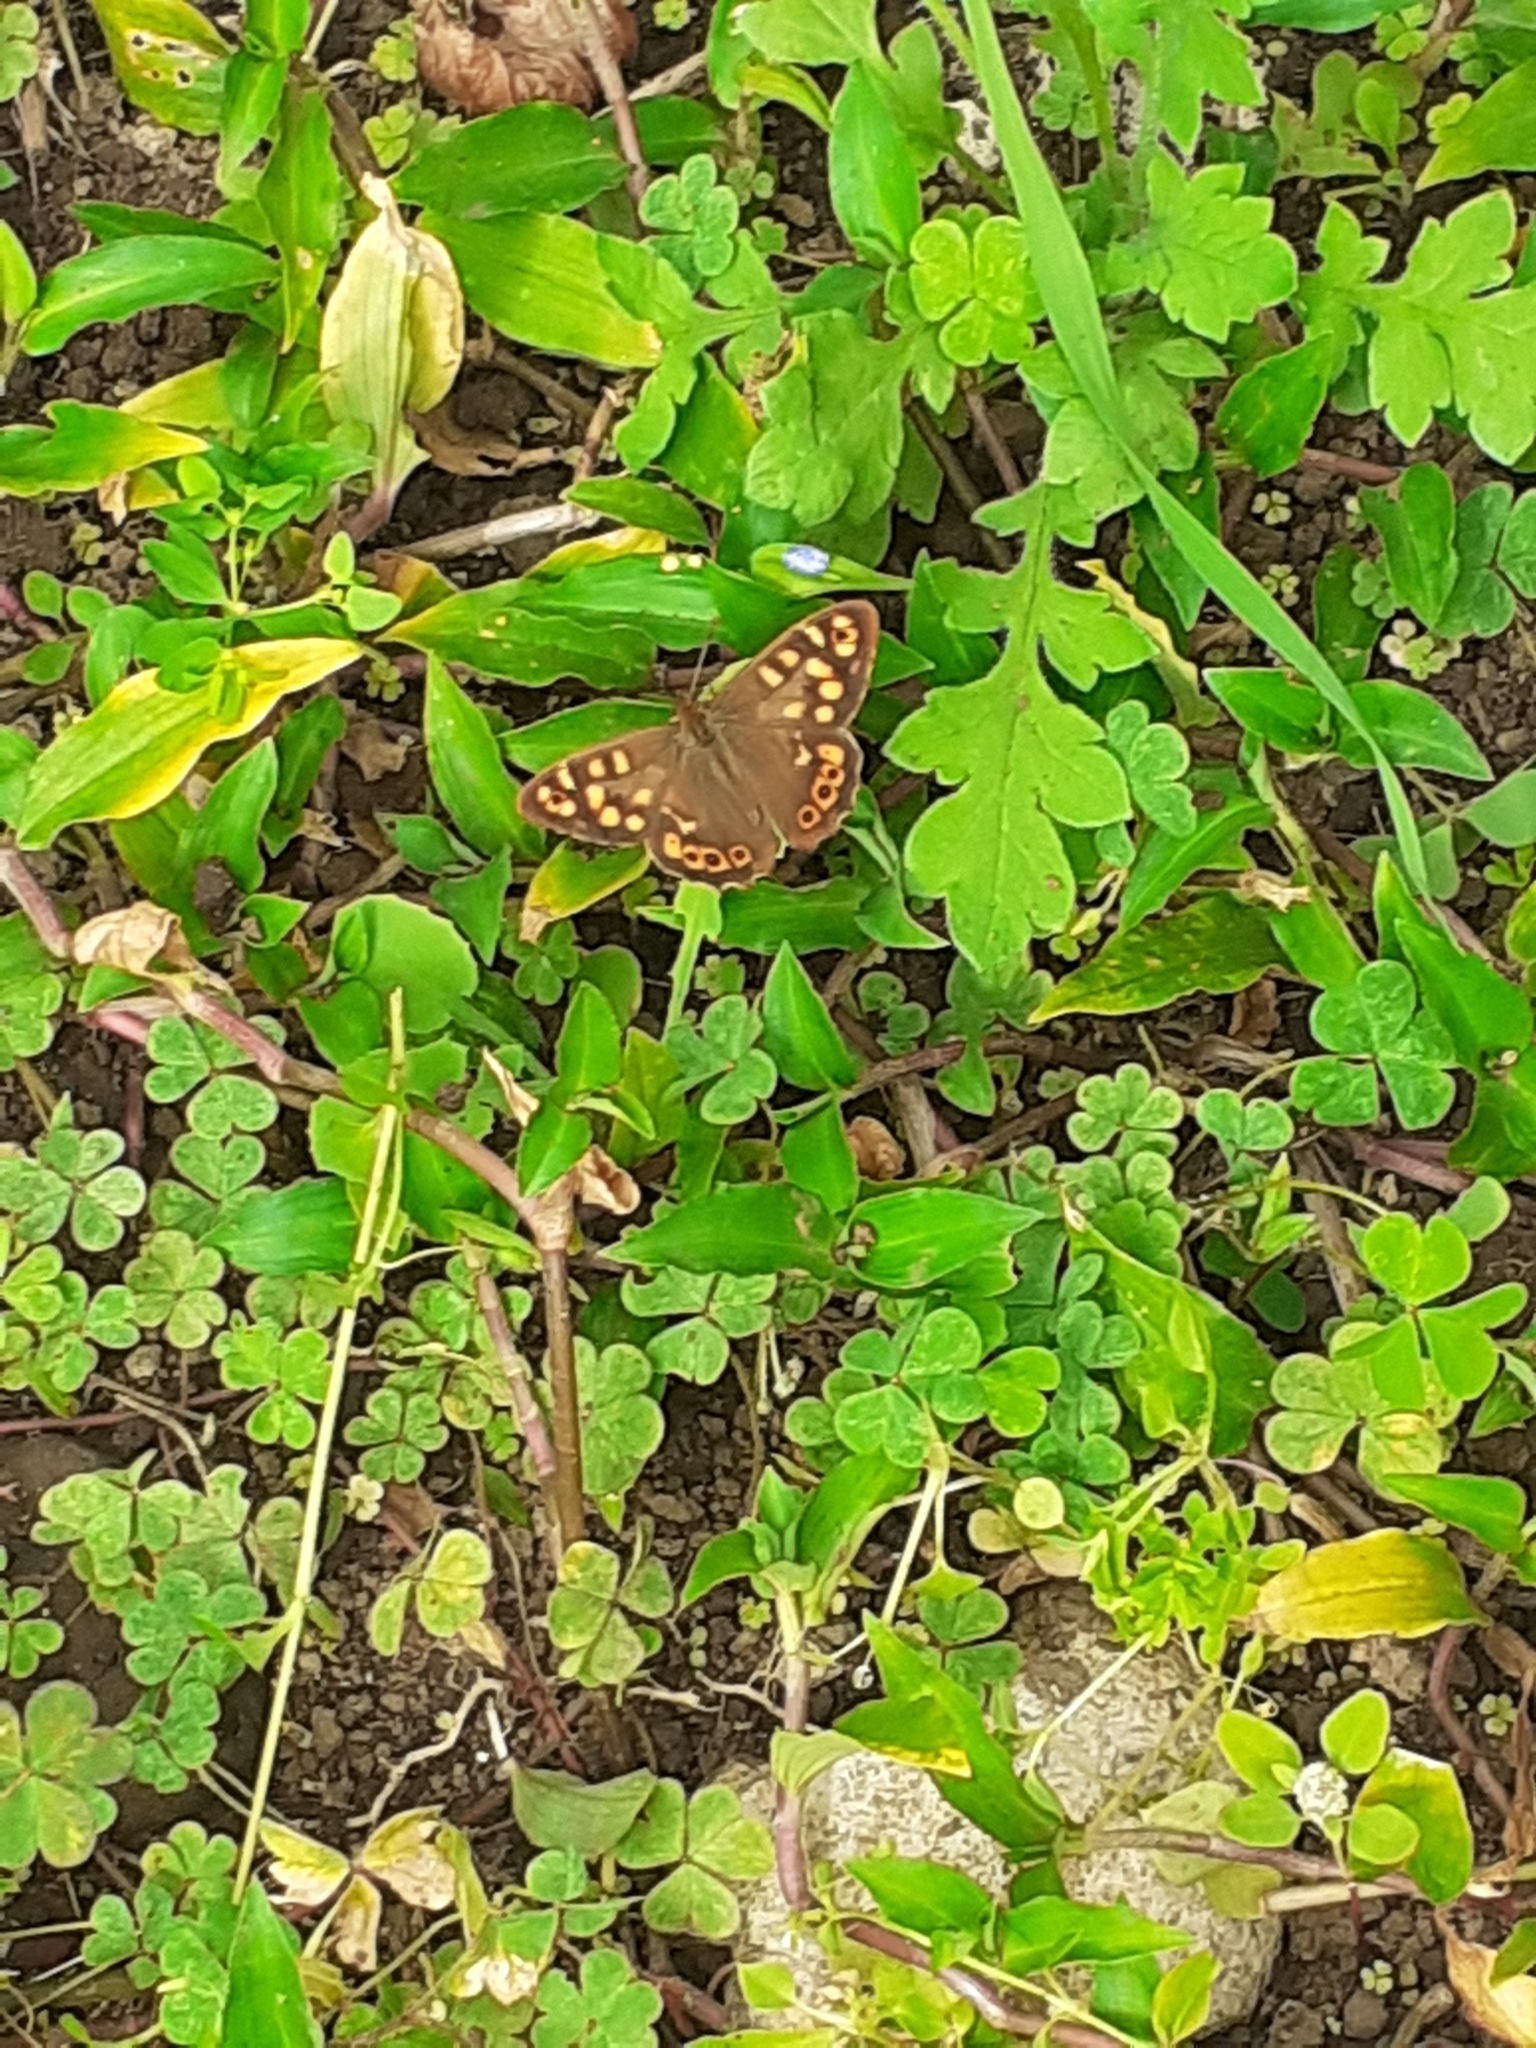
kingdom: Animalia
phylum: Arthropoda
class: Insecta
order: Lepidoptera
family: Nymphalidae
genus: Pararge
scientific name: Pararge aegeria
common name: Speckled wood
